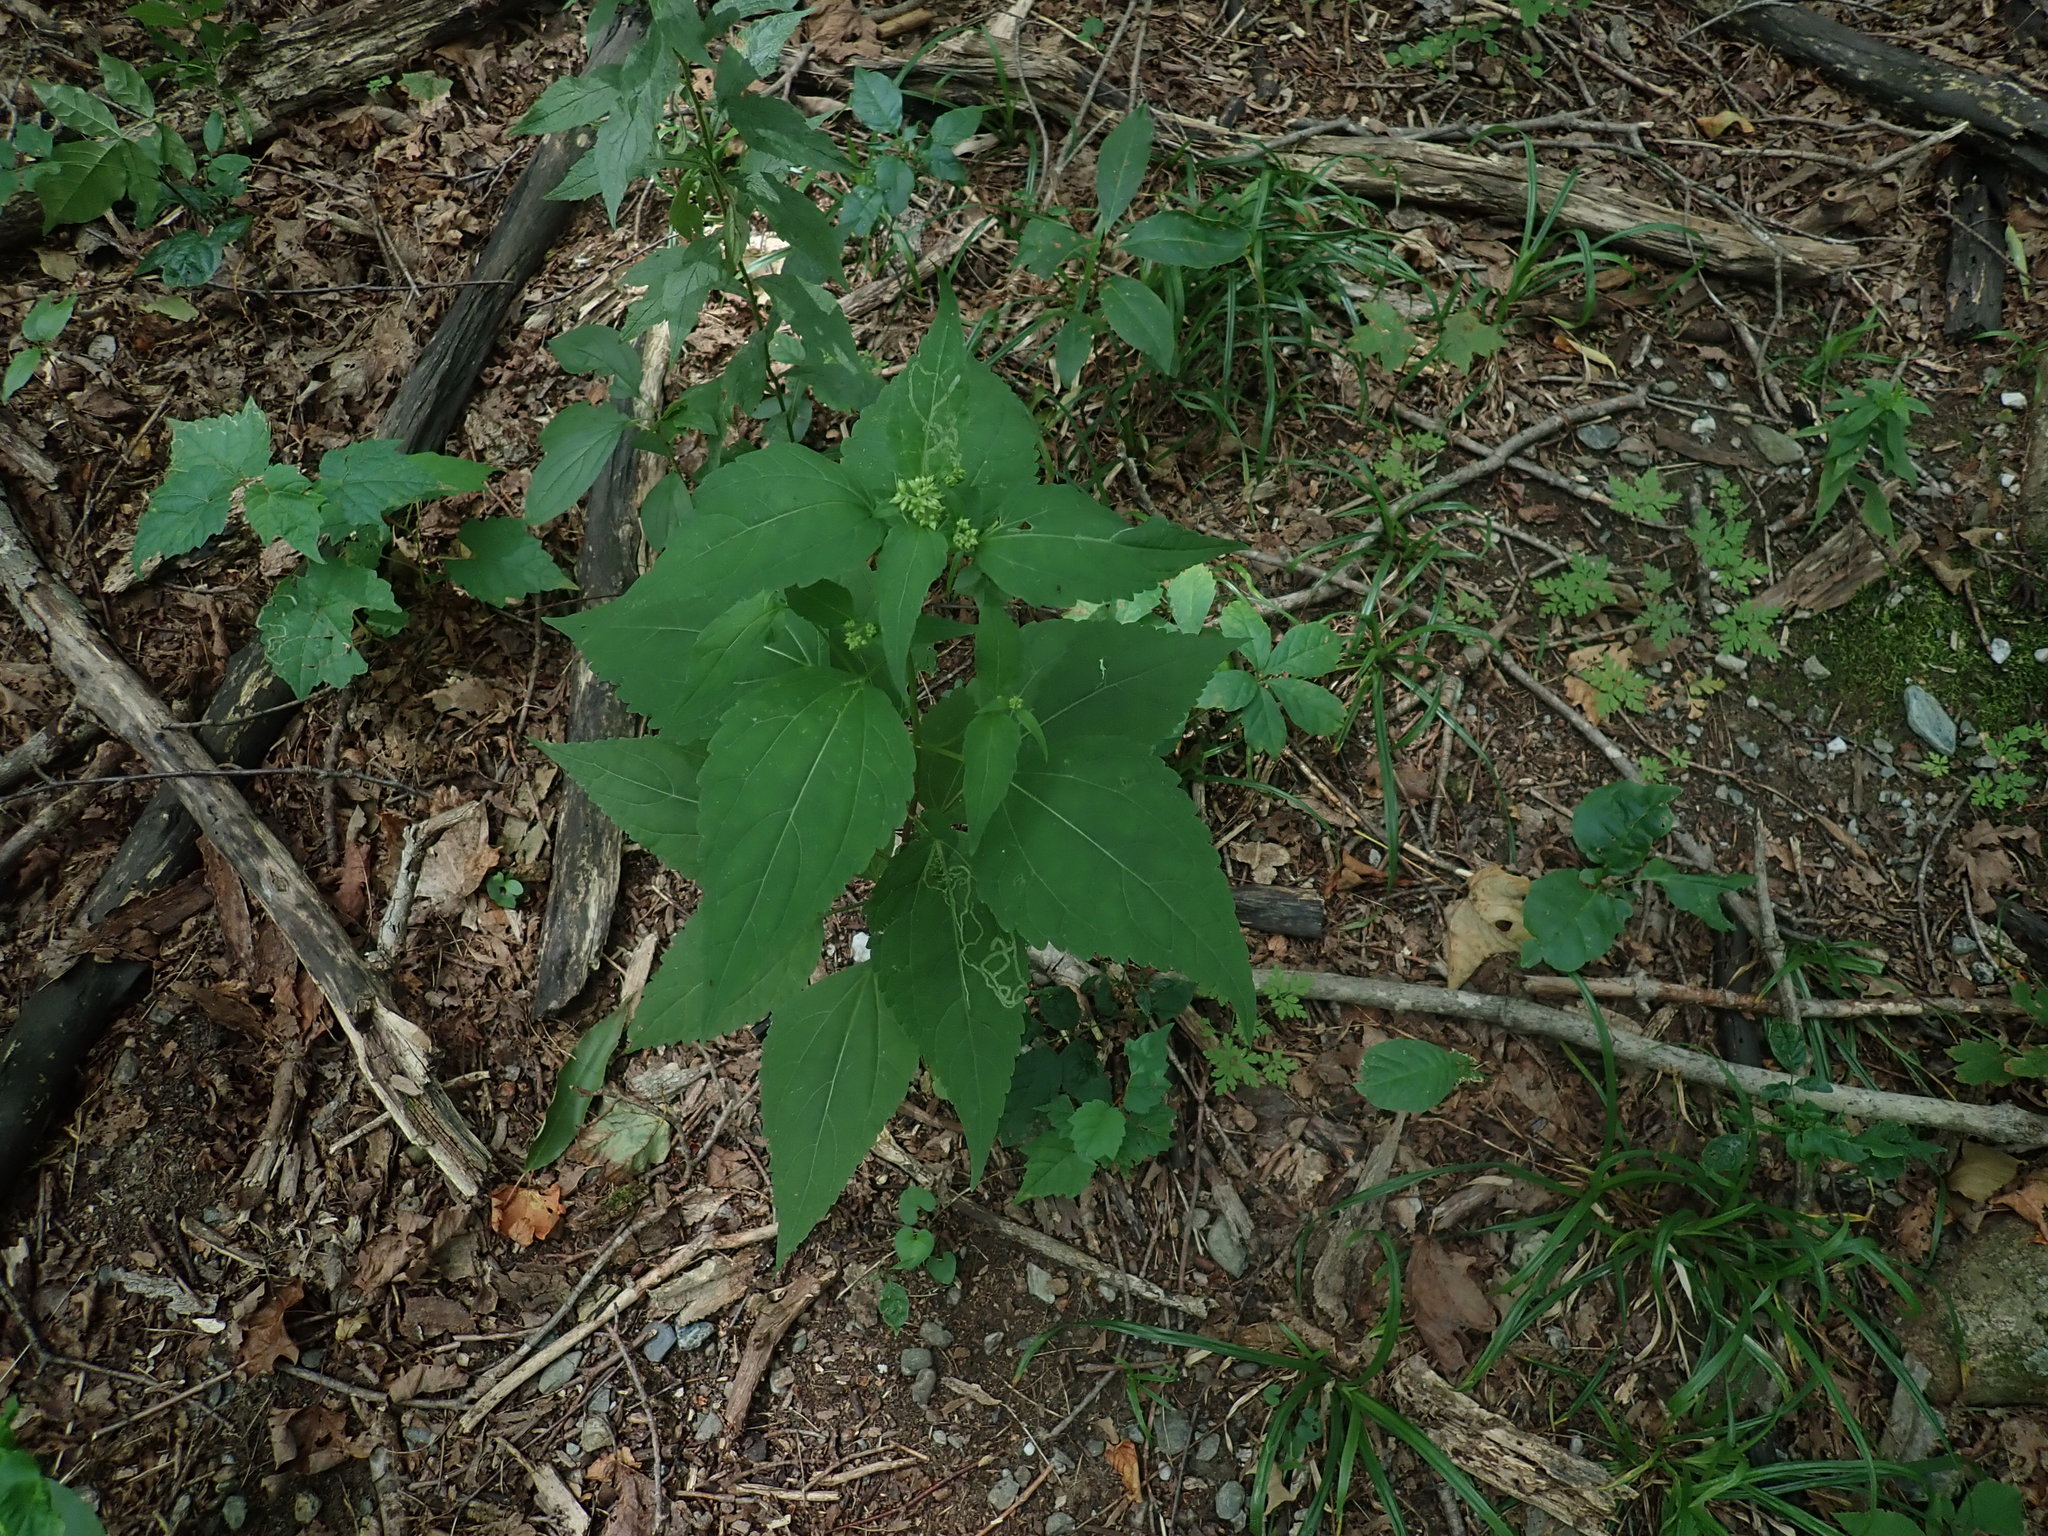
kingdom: Plantae
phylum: Tracheophyta
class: Magnoliopsida
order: Asterales
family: Asteraceae
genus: Ageratina
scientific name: Ageratina altissima
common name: White snakeroot
